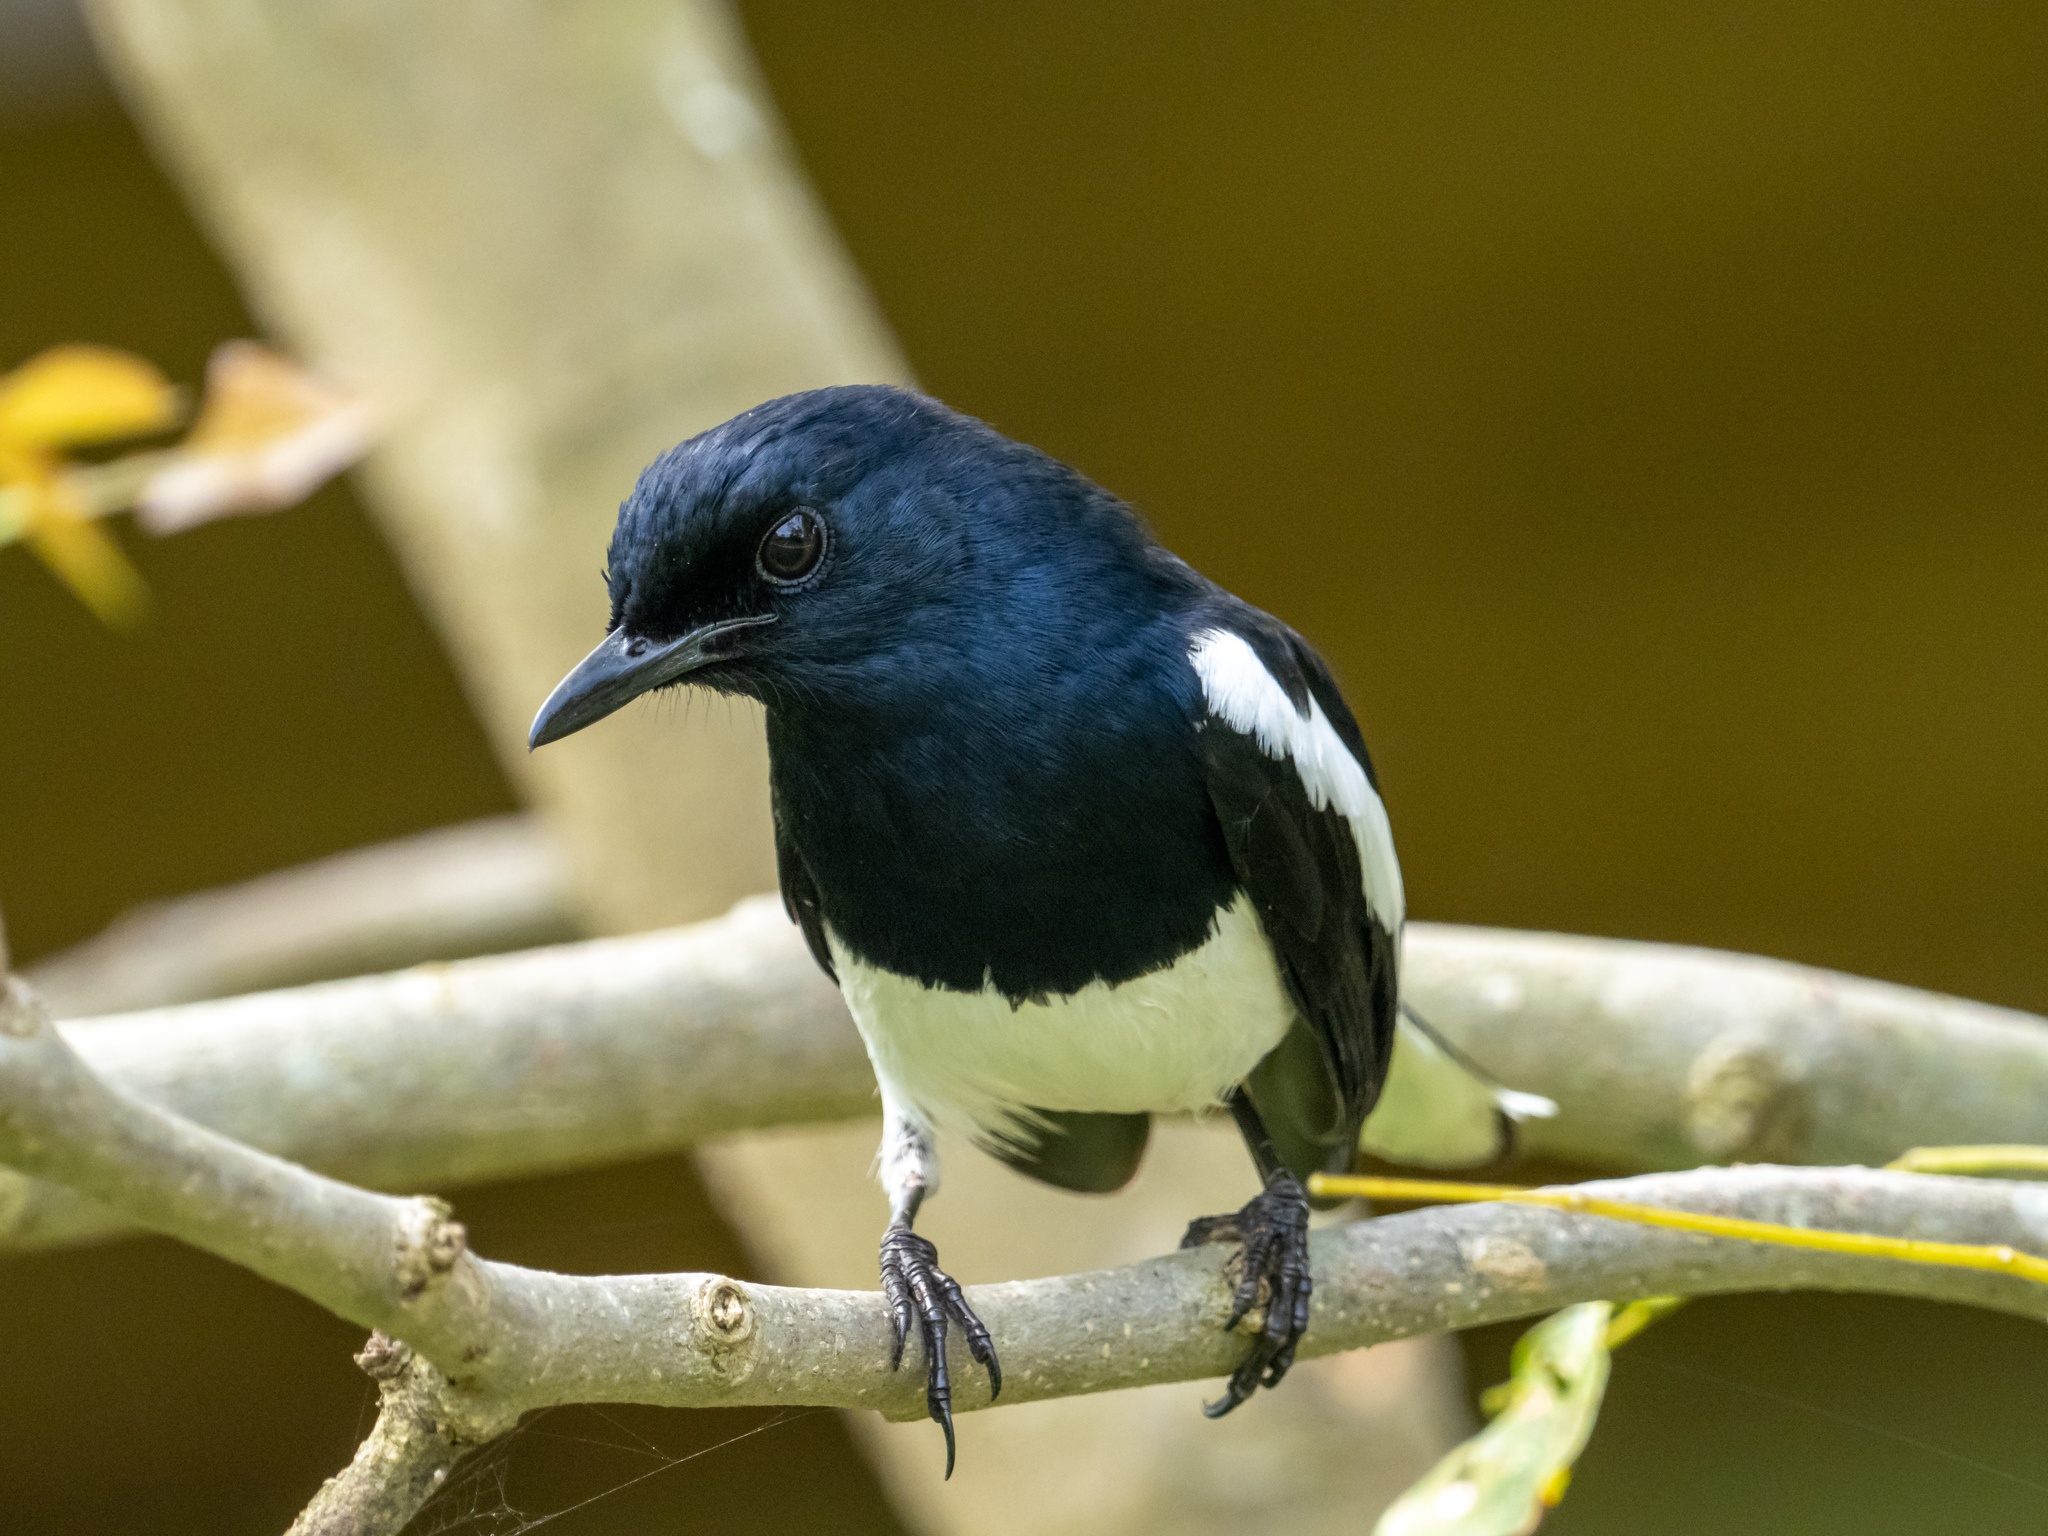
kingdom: Animalia
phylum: Chordata
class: Aves
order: Passeriformes
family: Muscicapidae
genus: Copsychus
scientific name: Copsychus saularis
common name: Oriental magpie-robin
